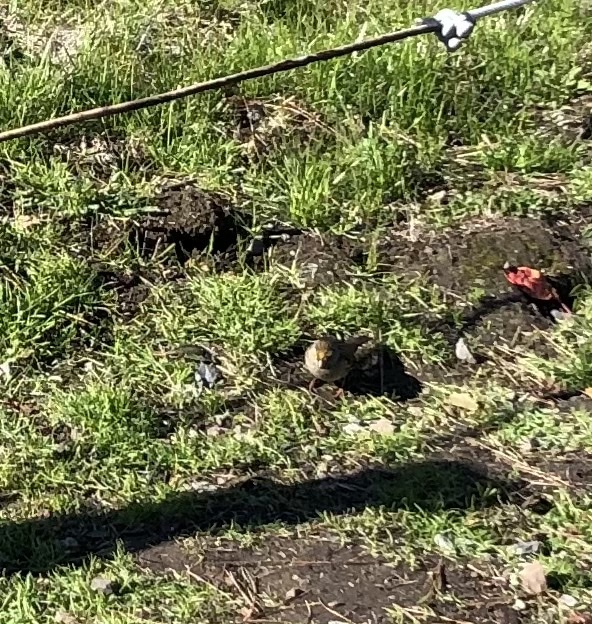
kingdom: Animalia
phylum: Chordata
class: Aves
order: Passeriformes
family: Passerellidae
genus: Zonotrichia
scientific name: Zonotrichia atricapilla
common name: Golden-crowned sparrow
